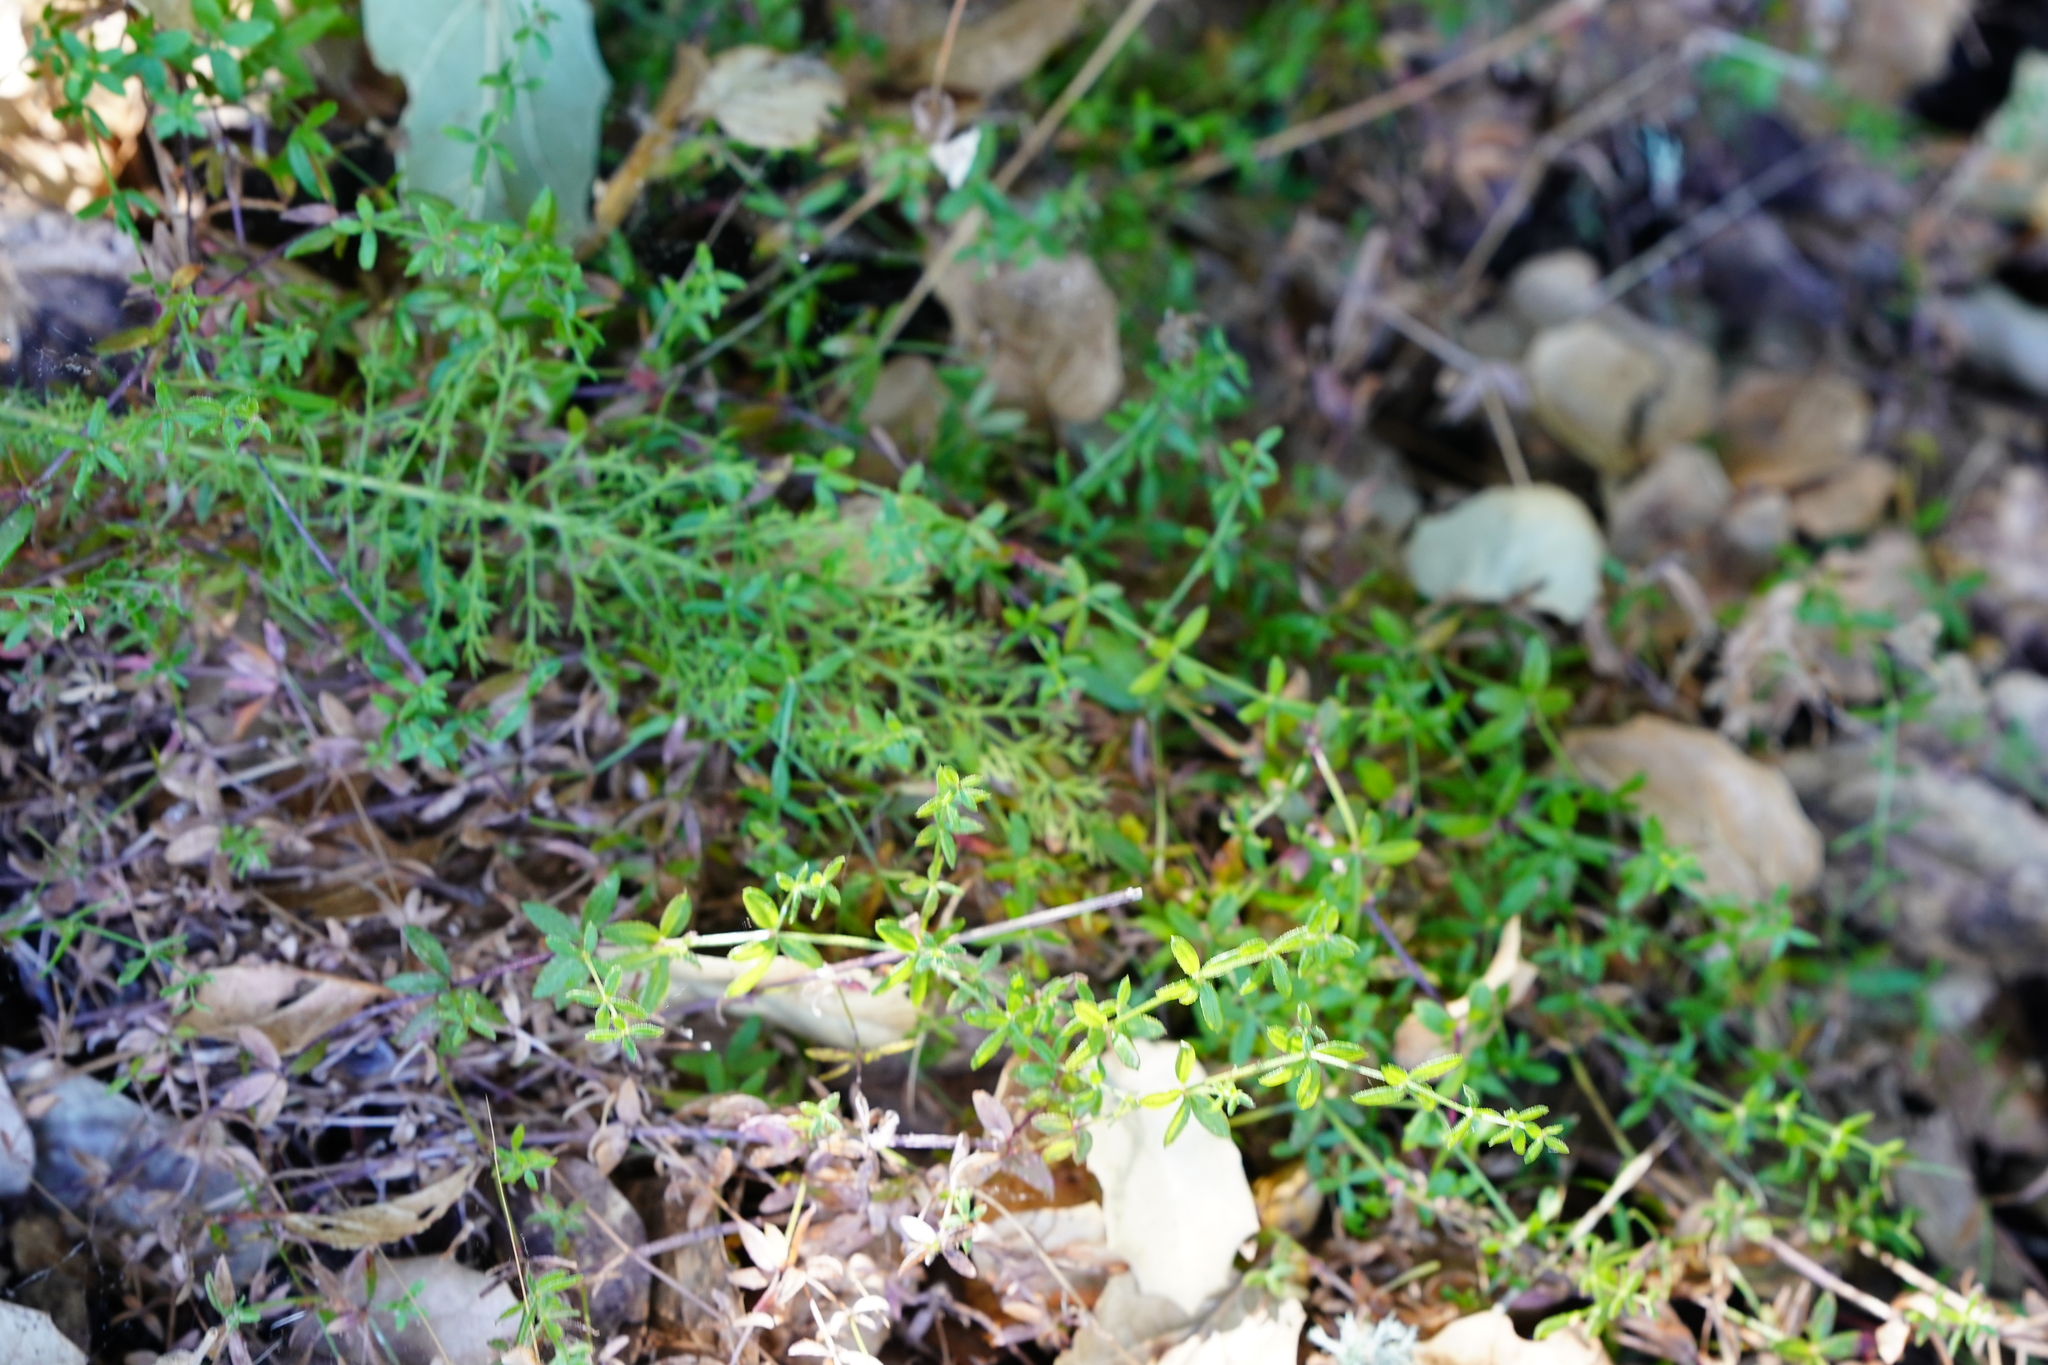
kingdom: Plantae
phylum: Tracheophyta
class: Magnoliopsida
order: Gentianales
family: Rubiaceae
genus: Galium
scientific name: Galium porrigens
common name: Climbing bedstraw
